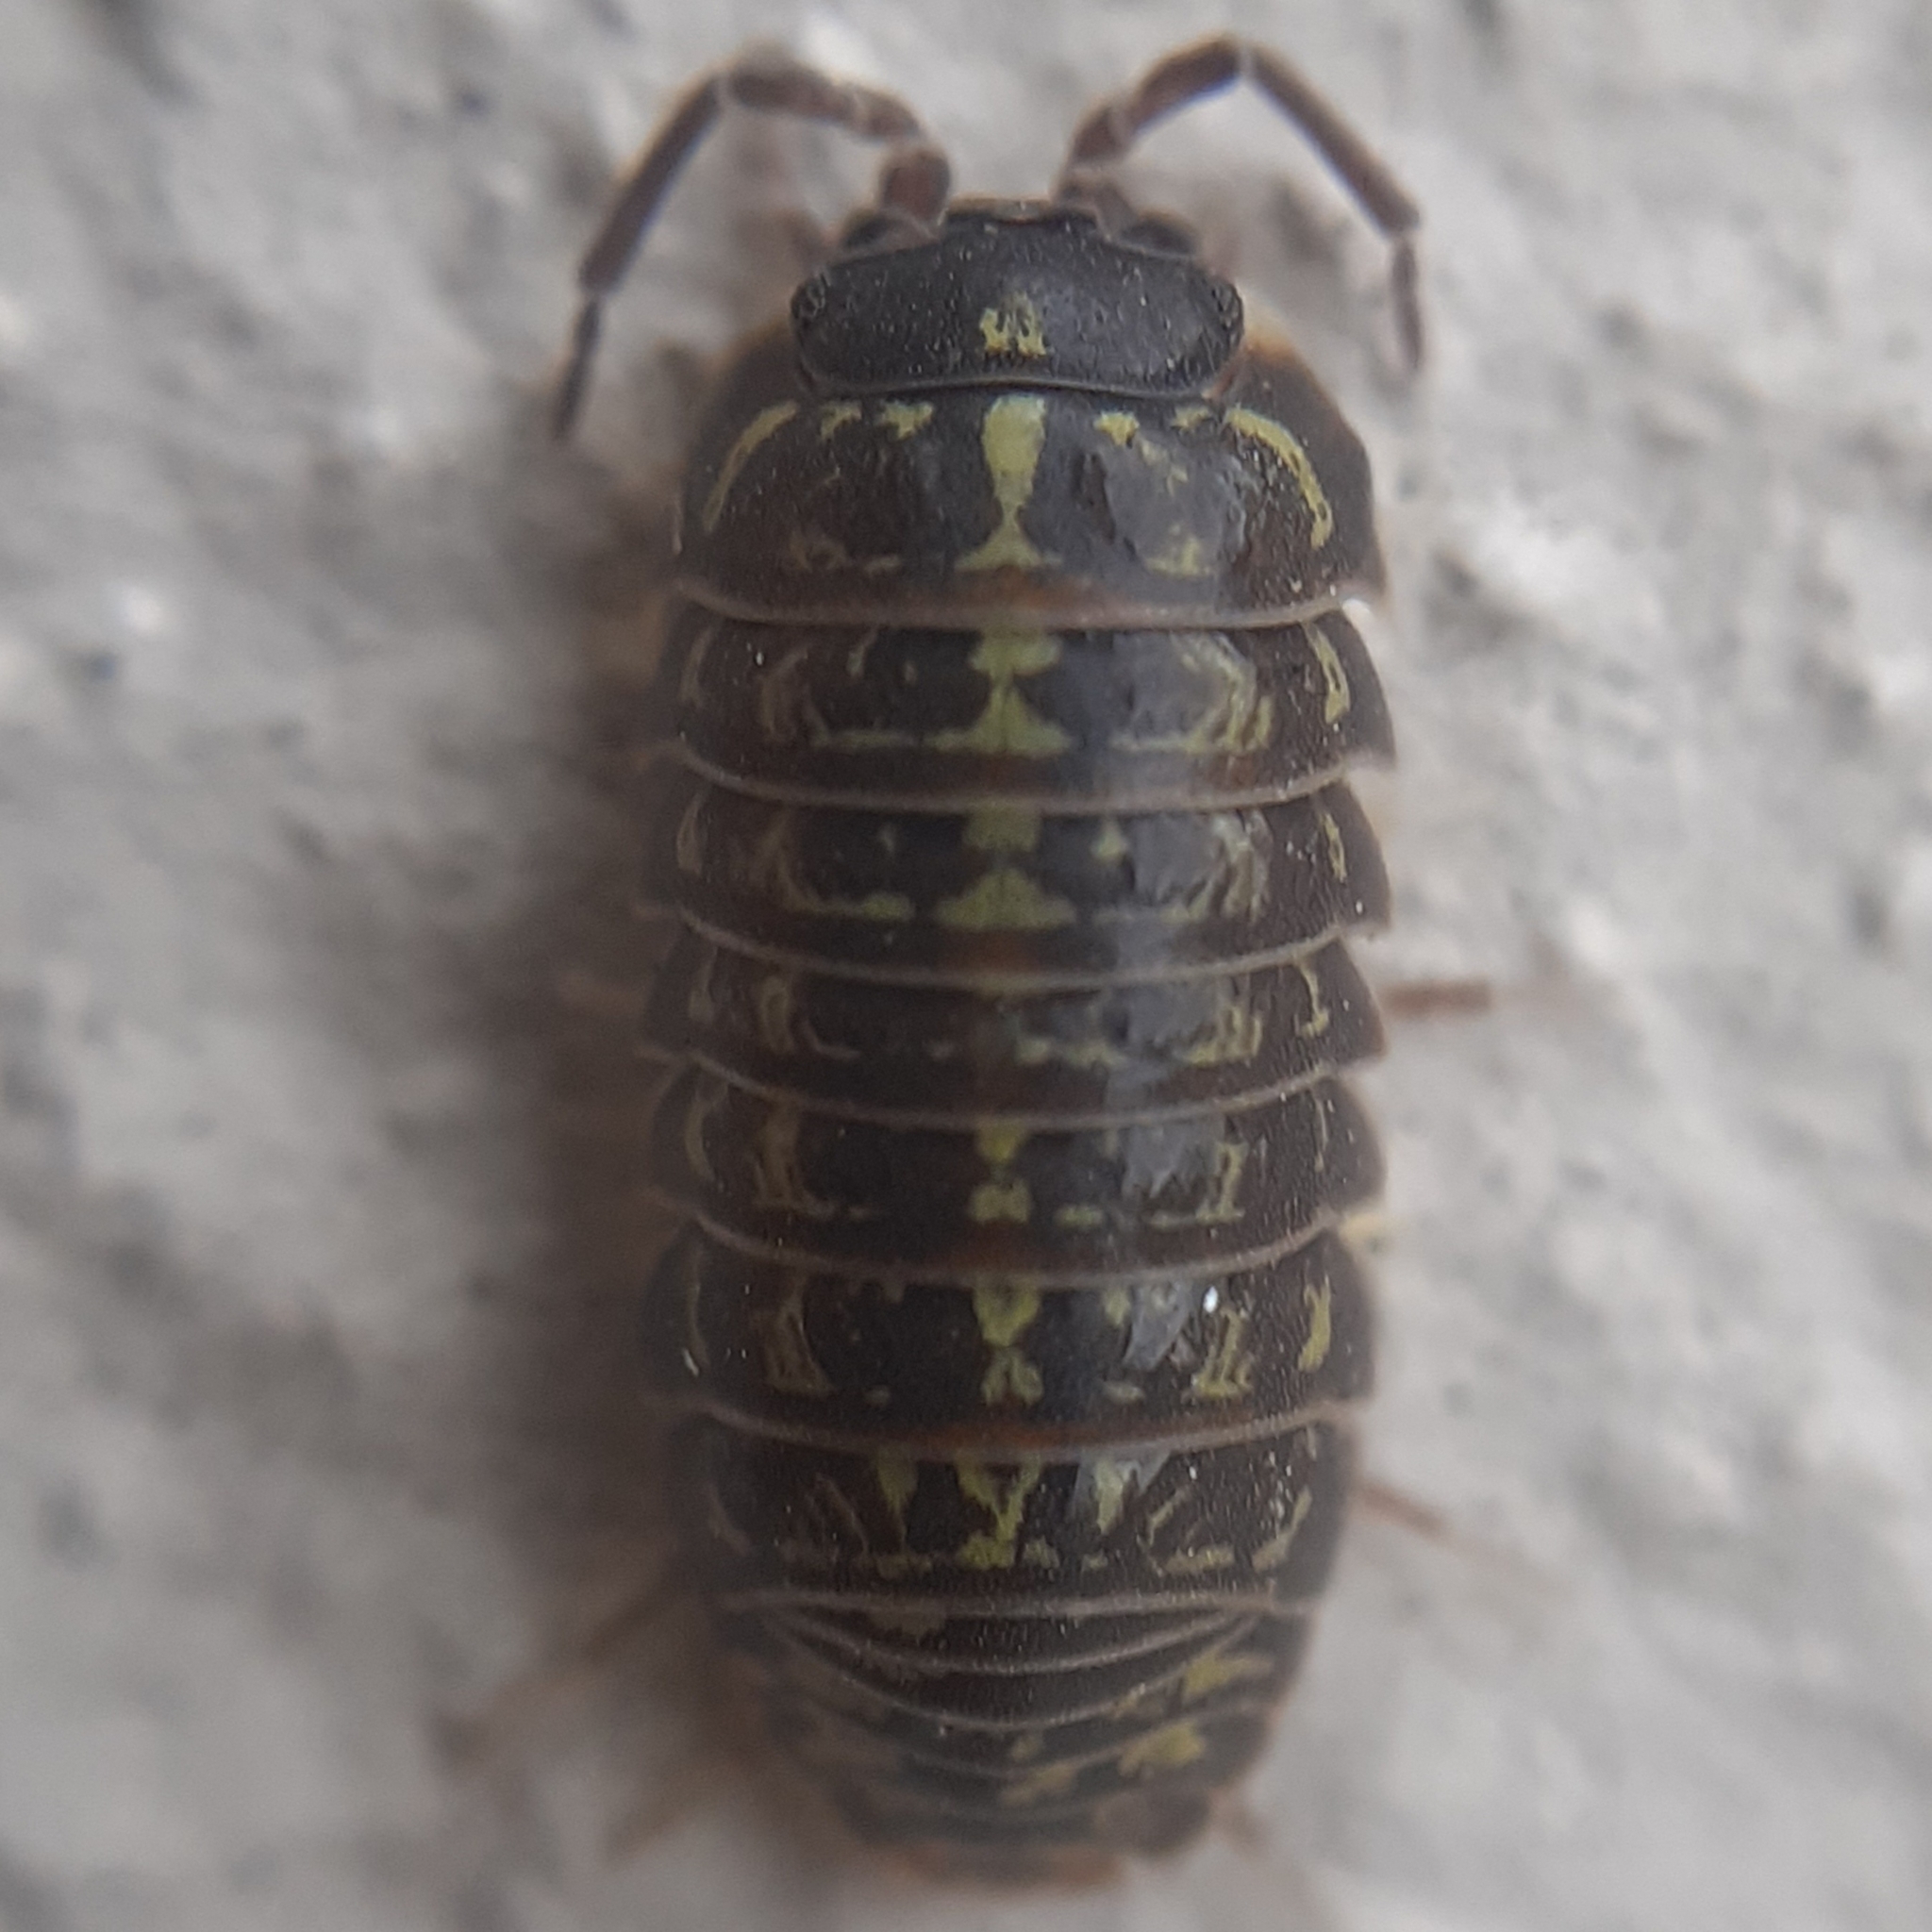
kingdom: Animalia
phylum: Arthropoda
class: Malacostraca
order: Isopoda
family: Armadillidiidae
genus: Armadillidium
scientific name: Armadillidium versicolor
